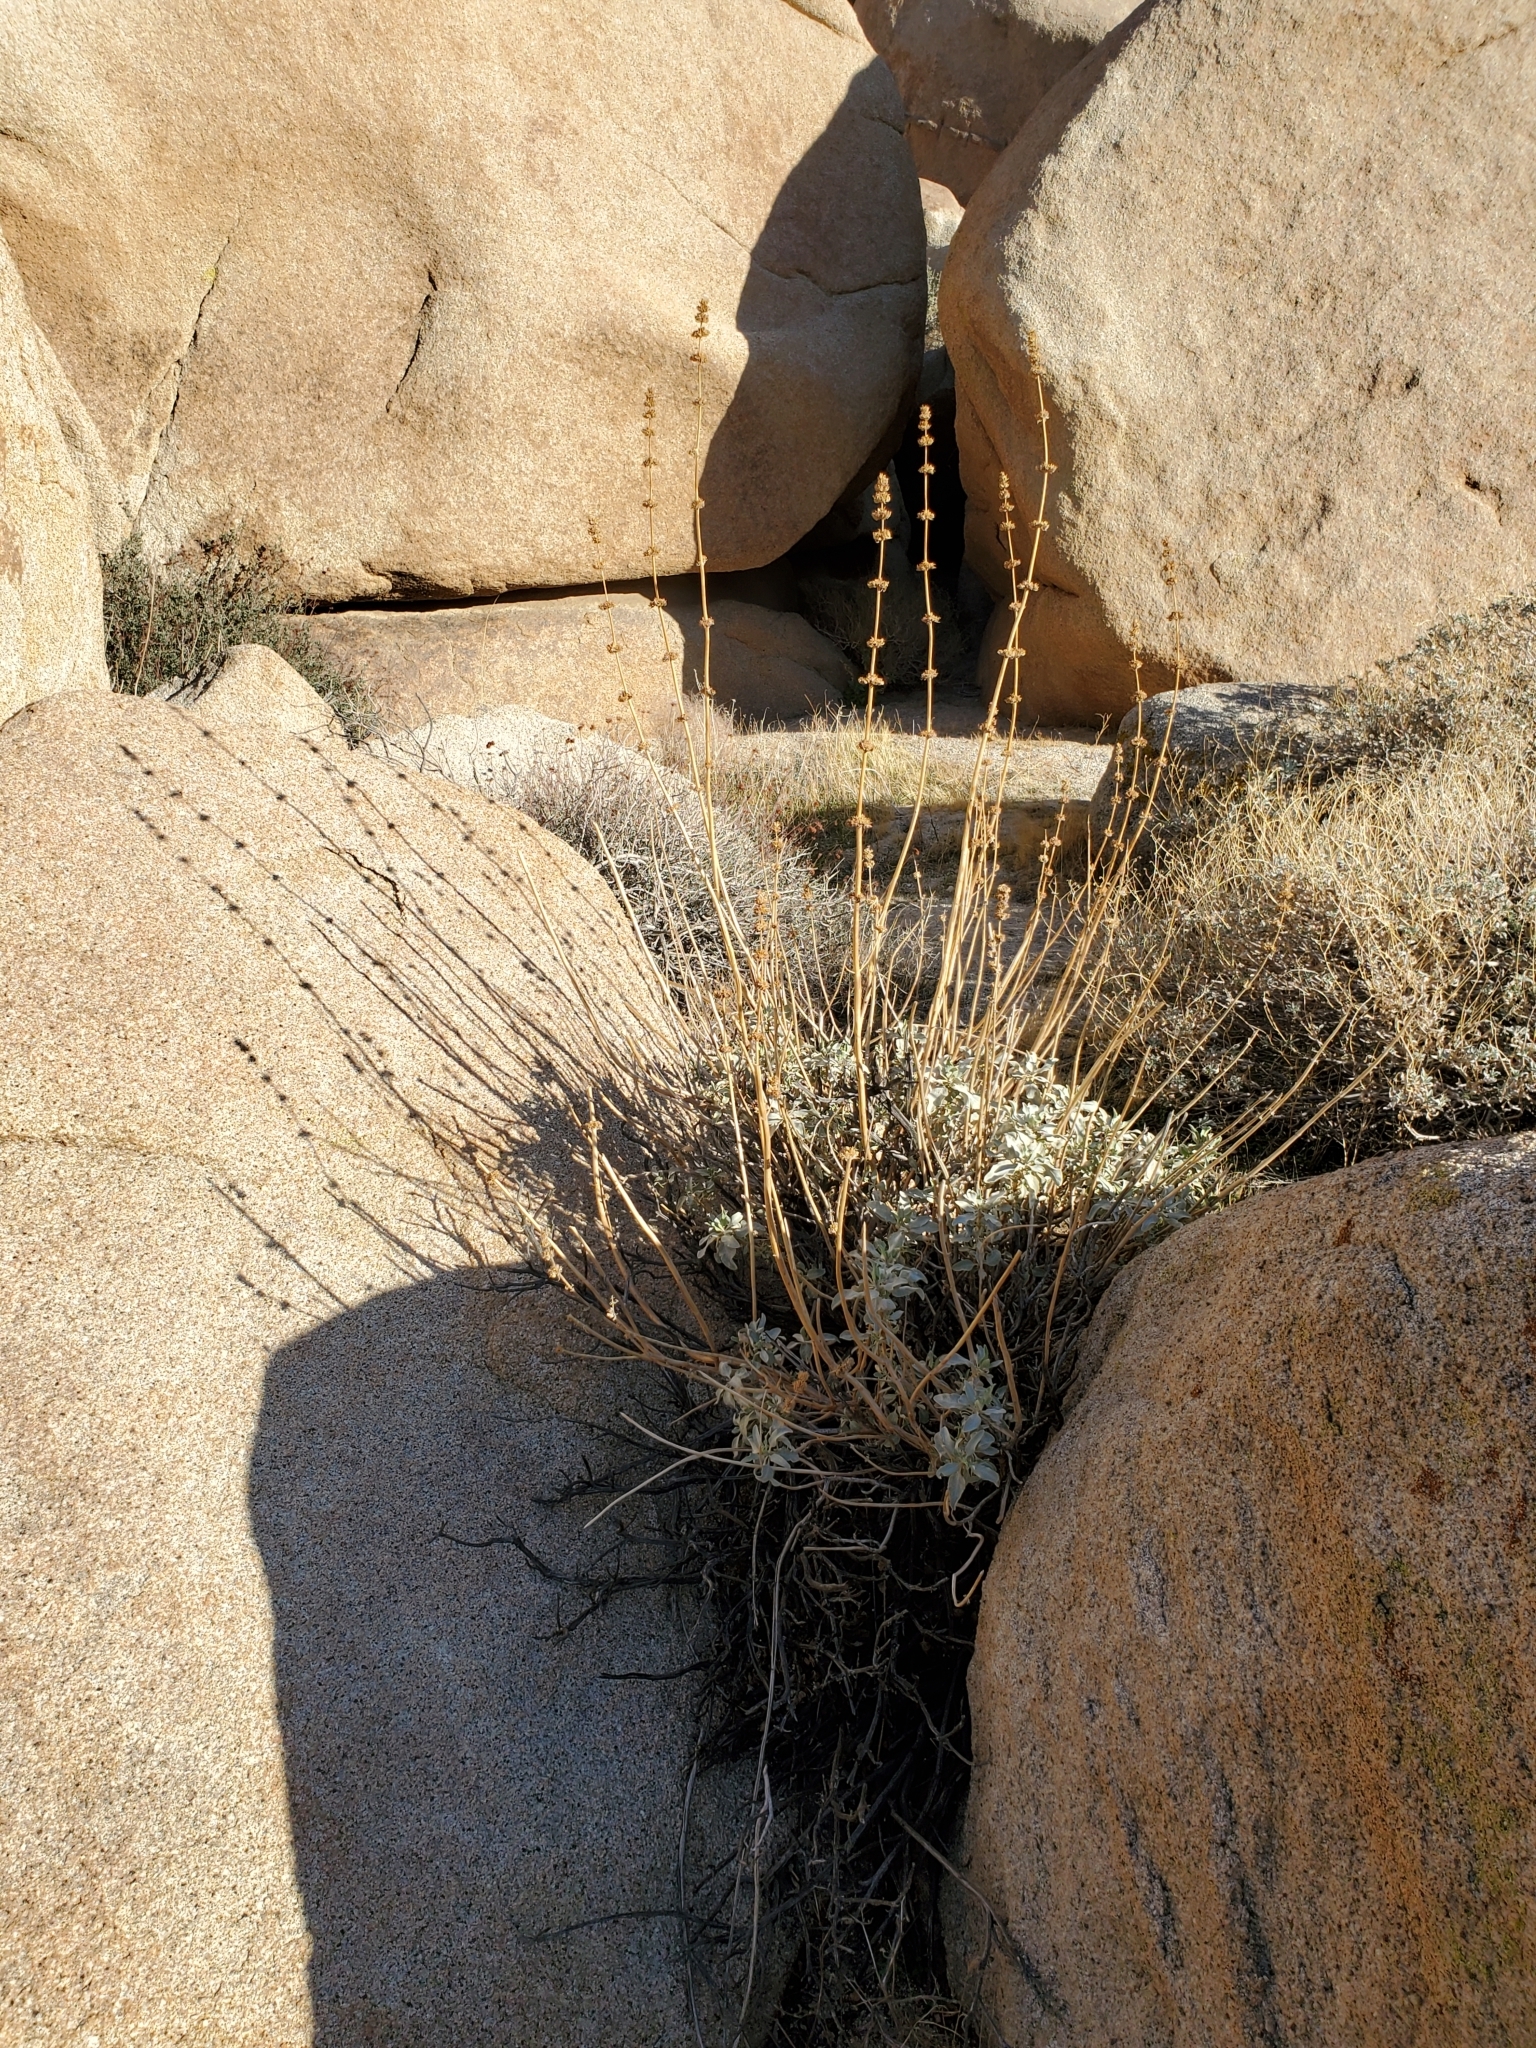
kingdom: Plantae
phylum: Tracheophyta
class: Magnoliopsida
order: Lamiales
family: Lamiaceae
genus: Salvia
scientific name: Salvia vaseyi
